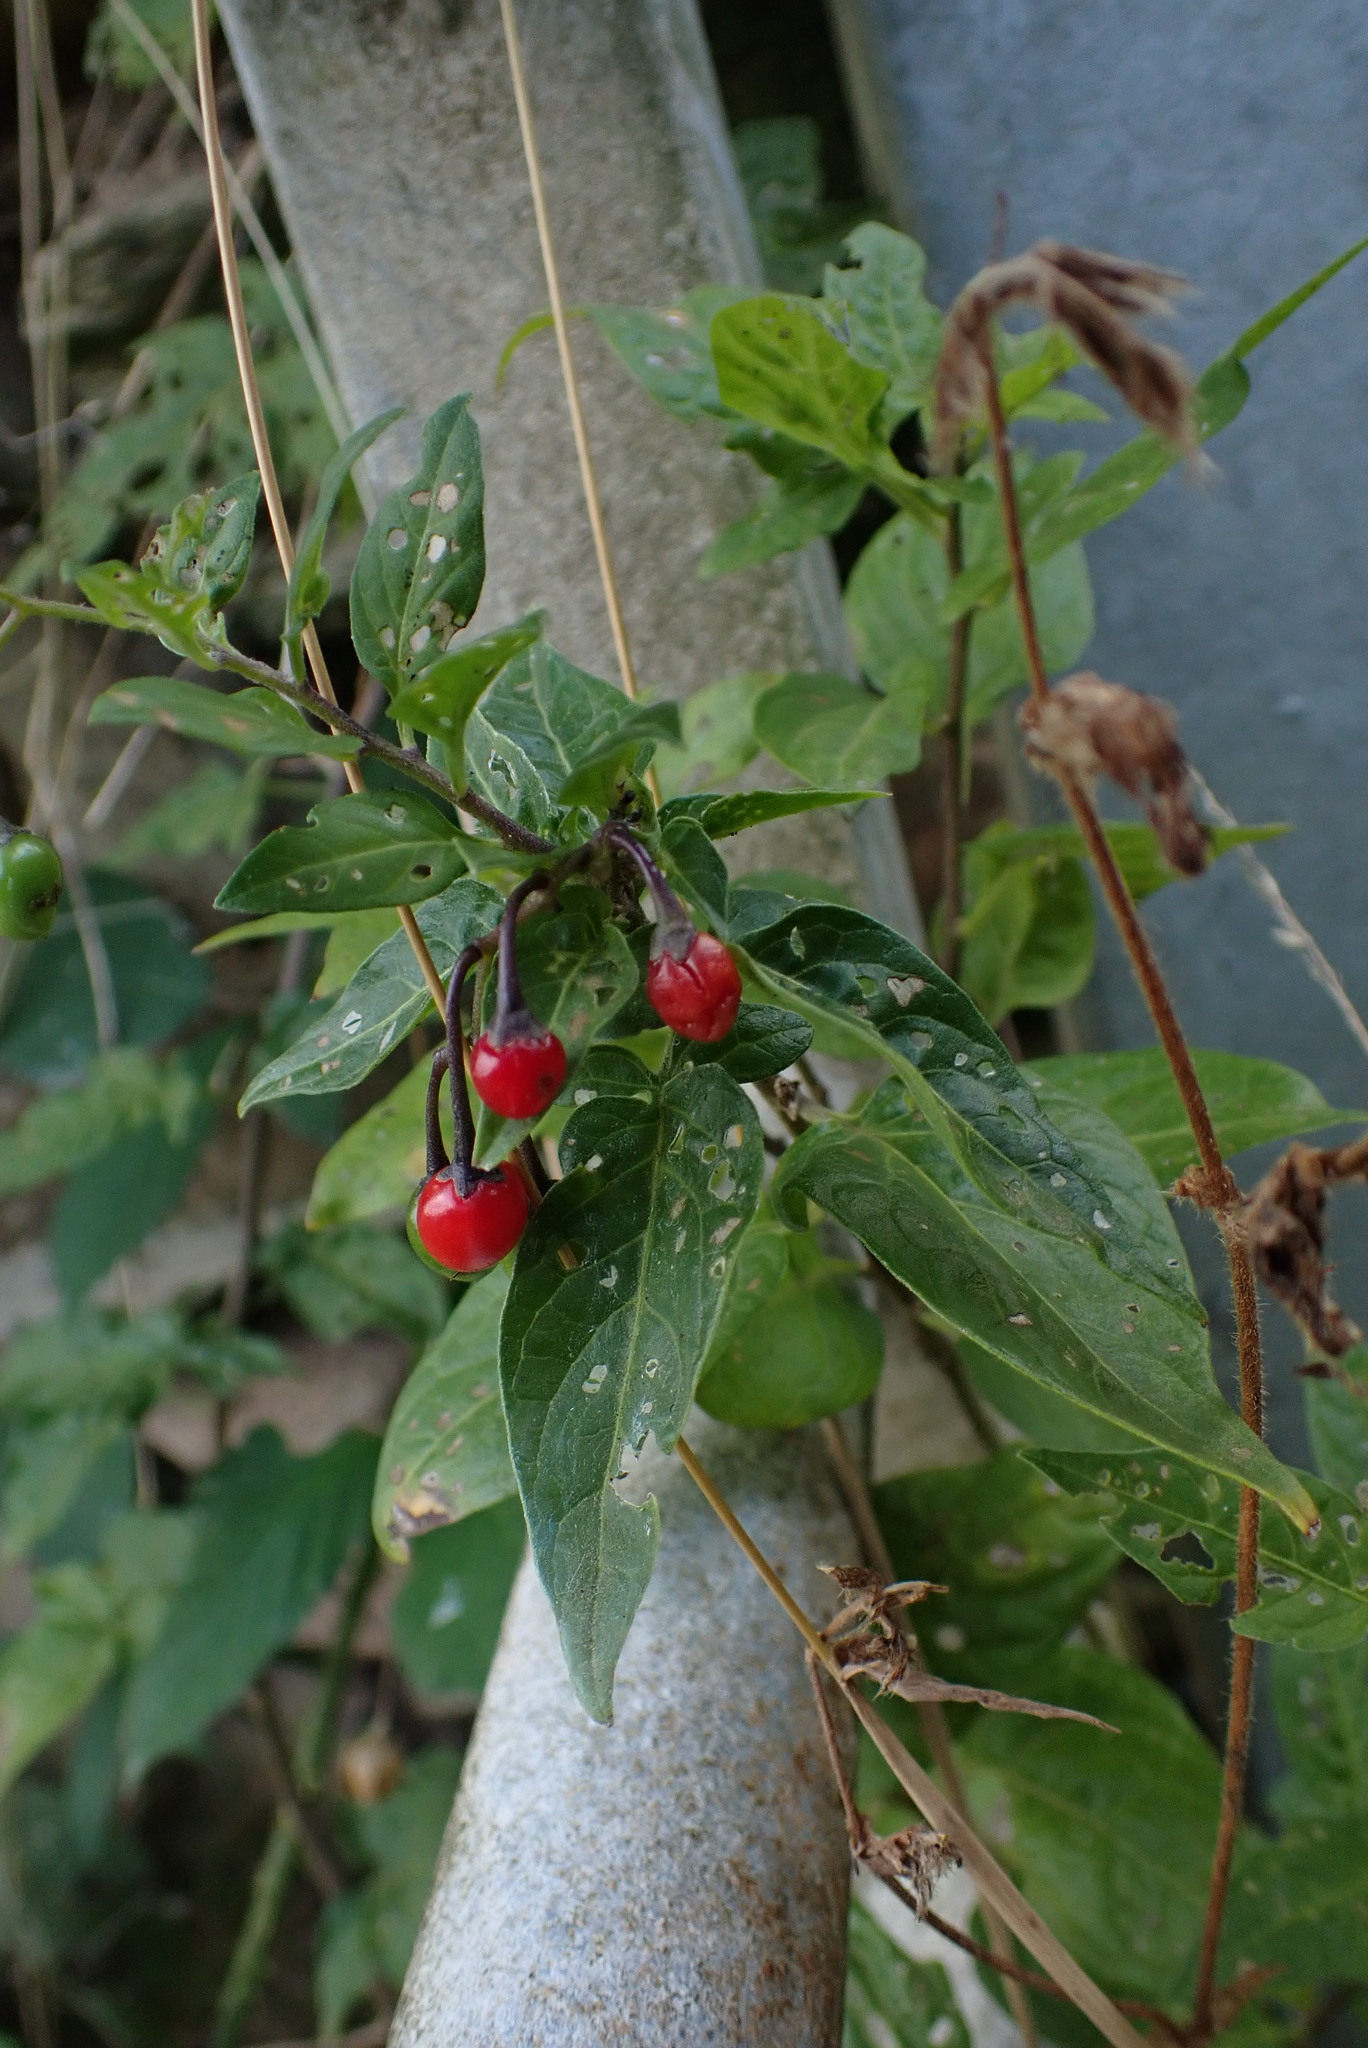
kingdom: Plantae
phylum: Tracheophyta
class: Magnoliopsida
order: Solanales
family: Solanaceae
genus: Solanum
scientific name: Solanum dulcamara
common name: Climbing nightshade
